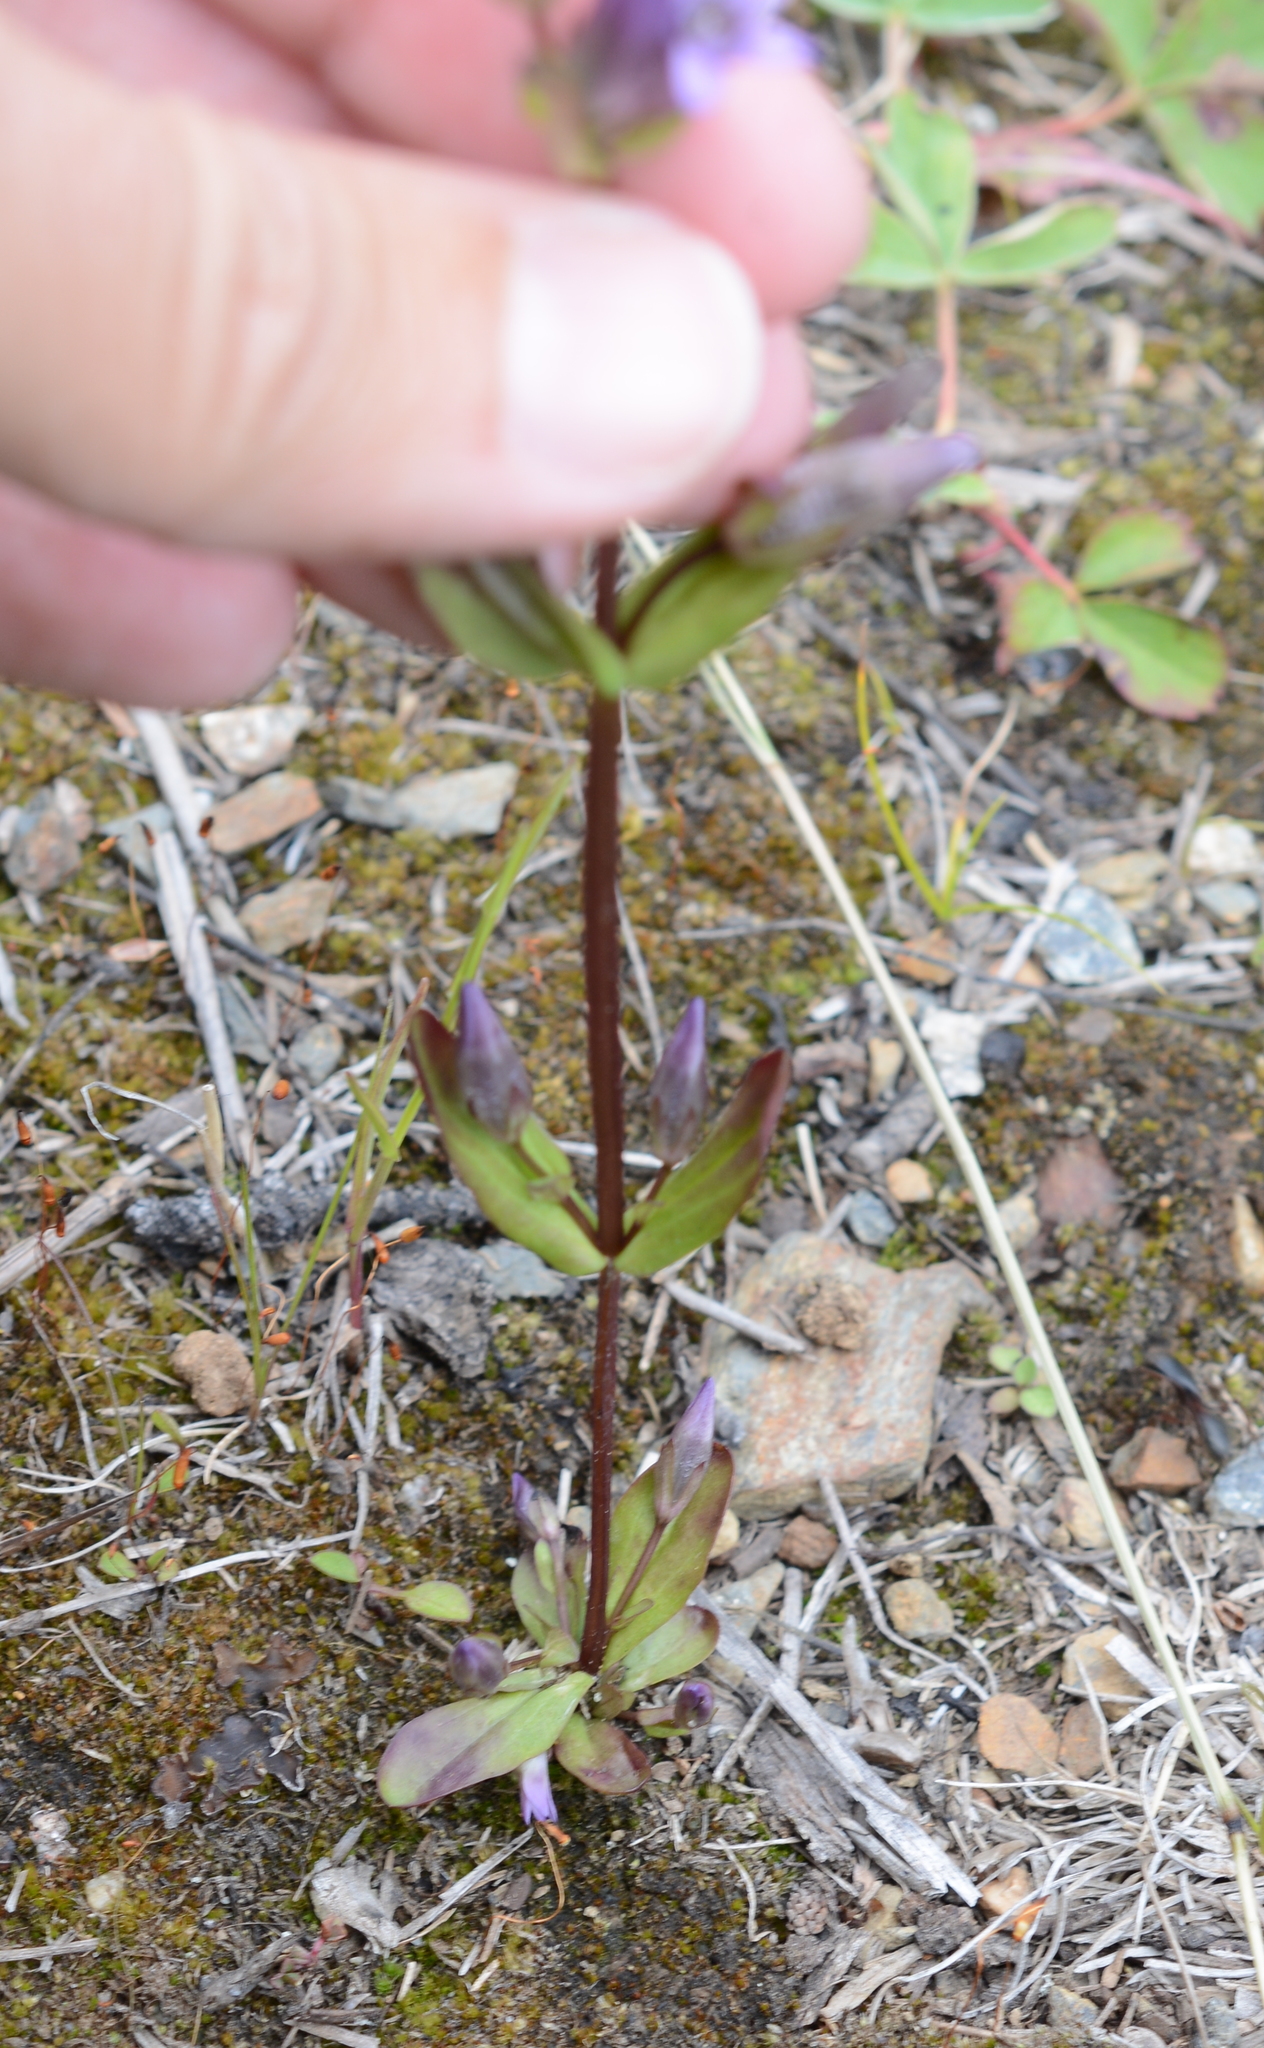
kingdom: Plantae
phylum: Tracheophyta
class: Magnoliopsida
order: Gentianales
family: Gentianaceae
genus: Gentianella
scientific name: Gentianella amarella
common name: Autumn gentian
